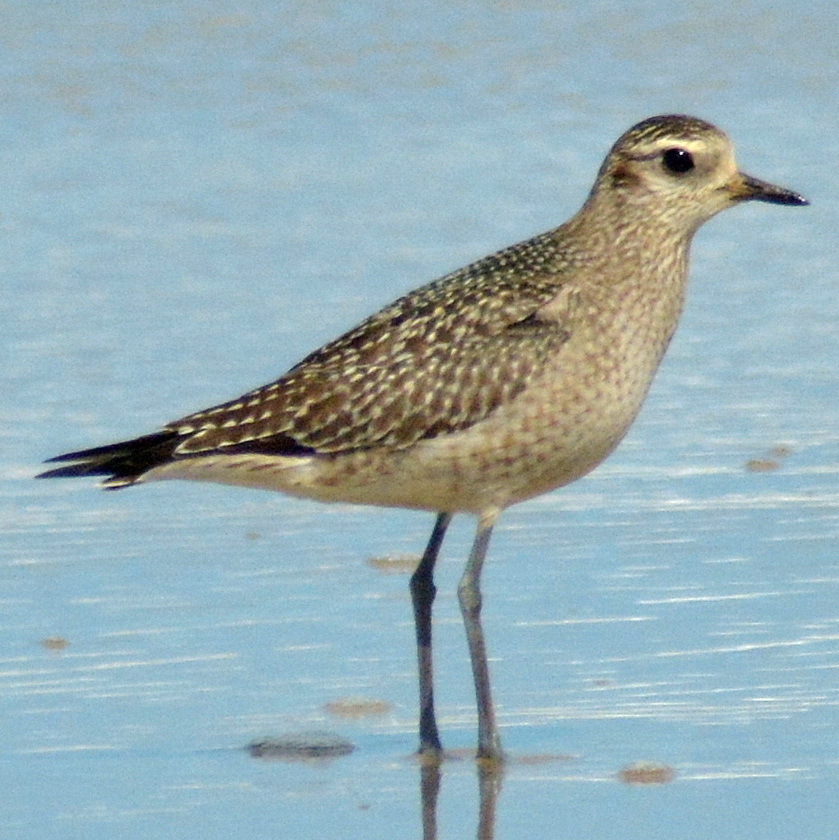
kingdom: Animalia
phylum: Chordata
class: Aves
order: Charadriiformes
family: Charadriidae
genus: Pluvialis
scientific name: Pluvialis dominica
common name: American golden plover
